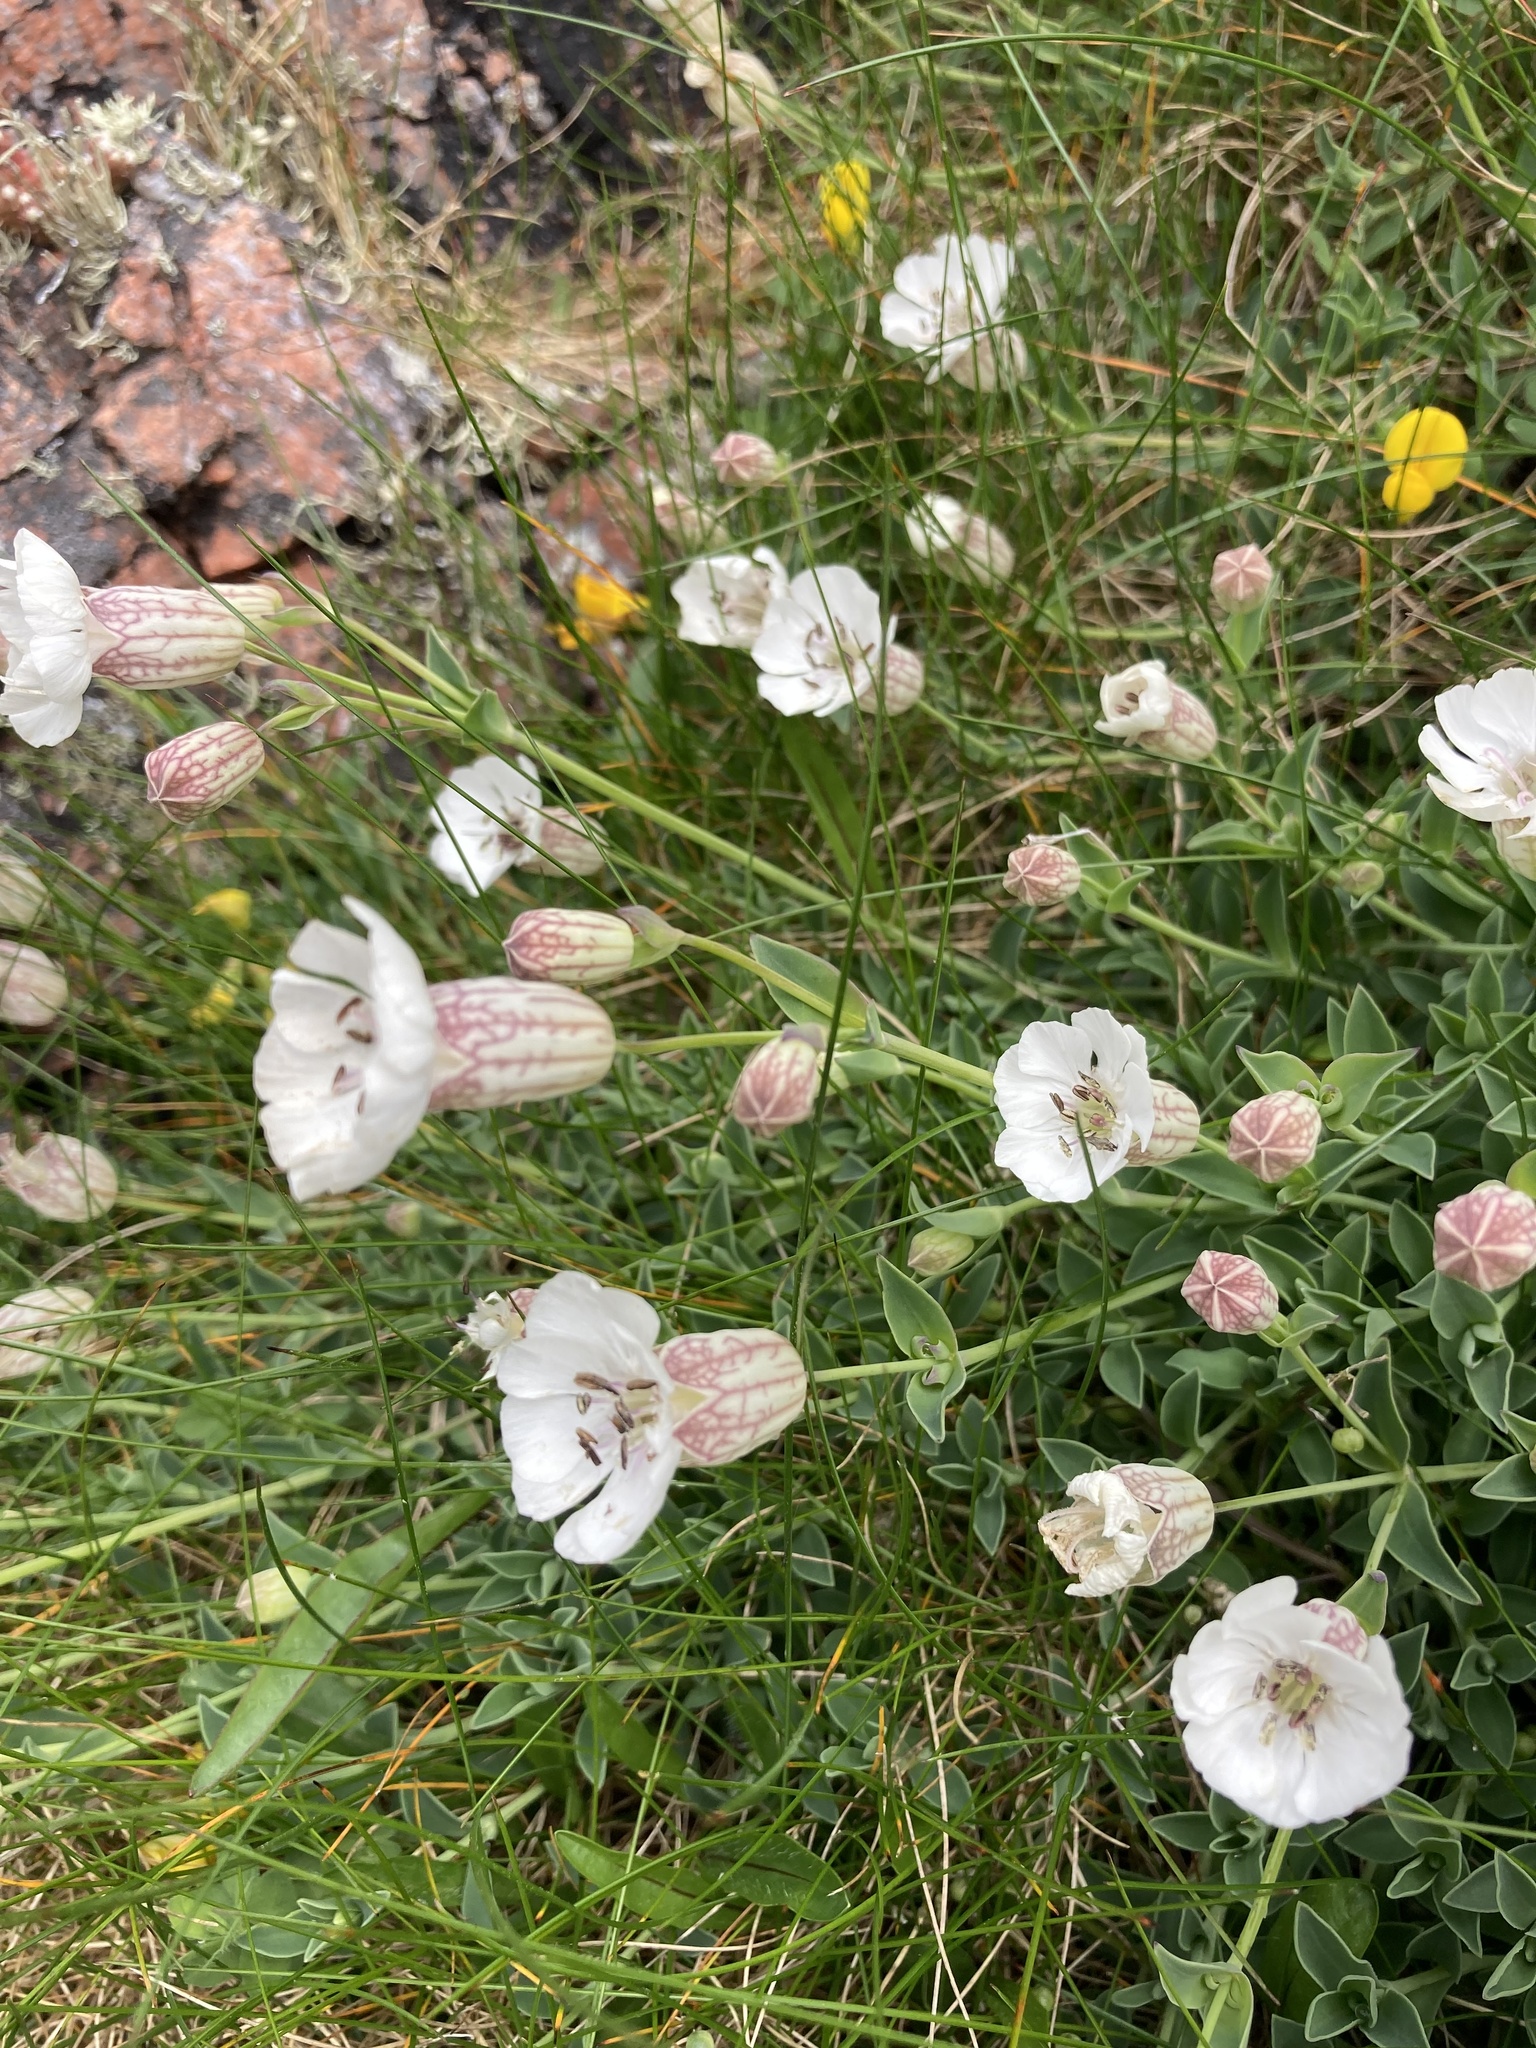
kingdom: Plantae
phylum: Tracheophyta
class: Magnoliopsida
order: Caryophyllales
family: Caryophyllaceae
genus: Silene
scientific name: Silene uniflora
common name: Sea campion
